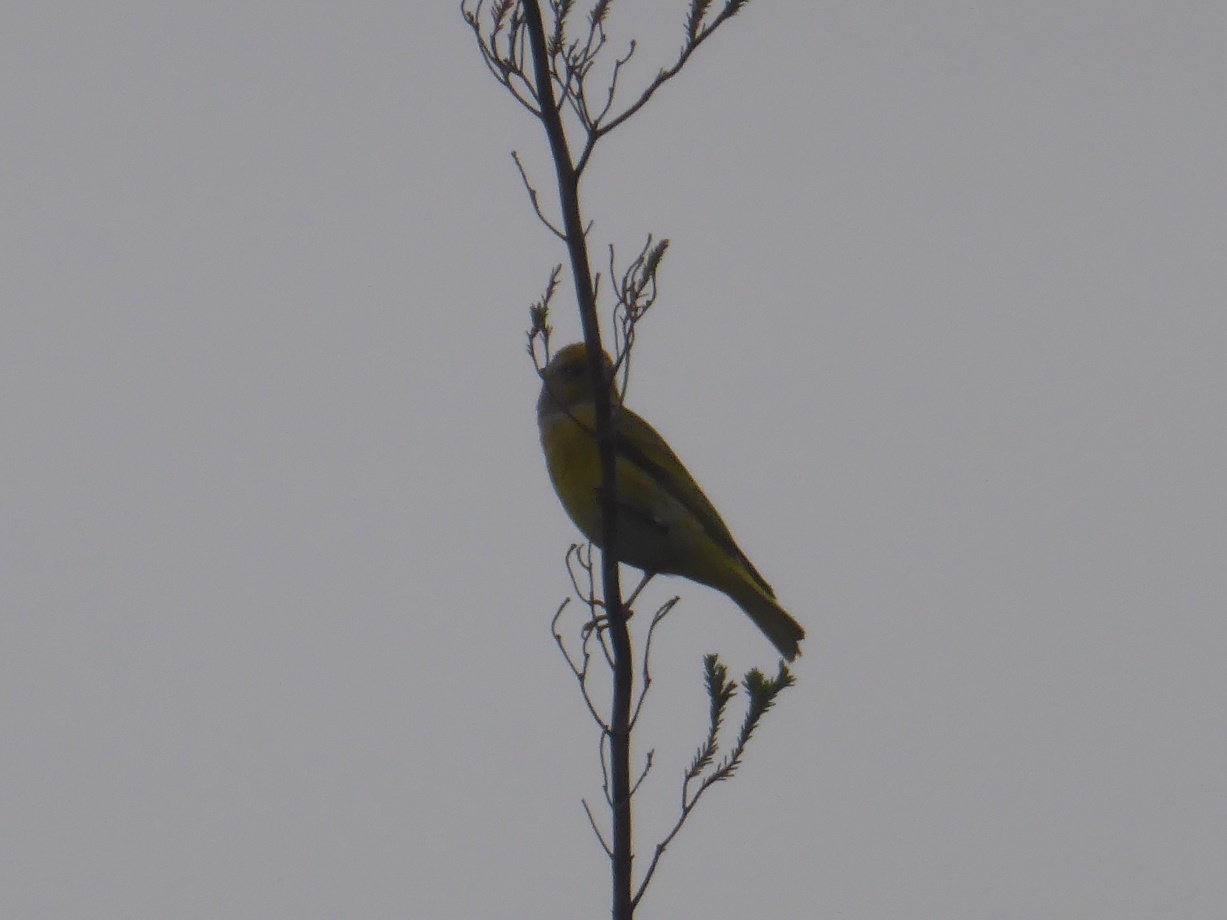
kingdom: Animalia
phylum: Chordata
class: Aves
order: Passeriformes
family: Fringillidae
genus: Serinus
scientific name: Serinus canicollis
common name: Cape canary
